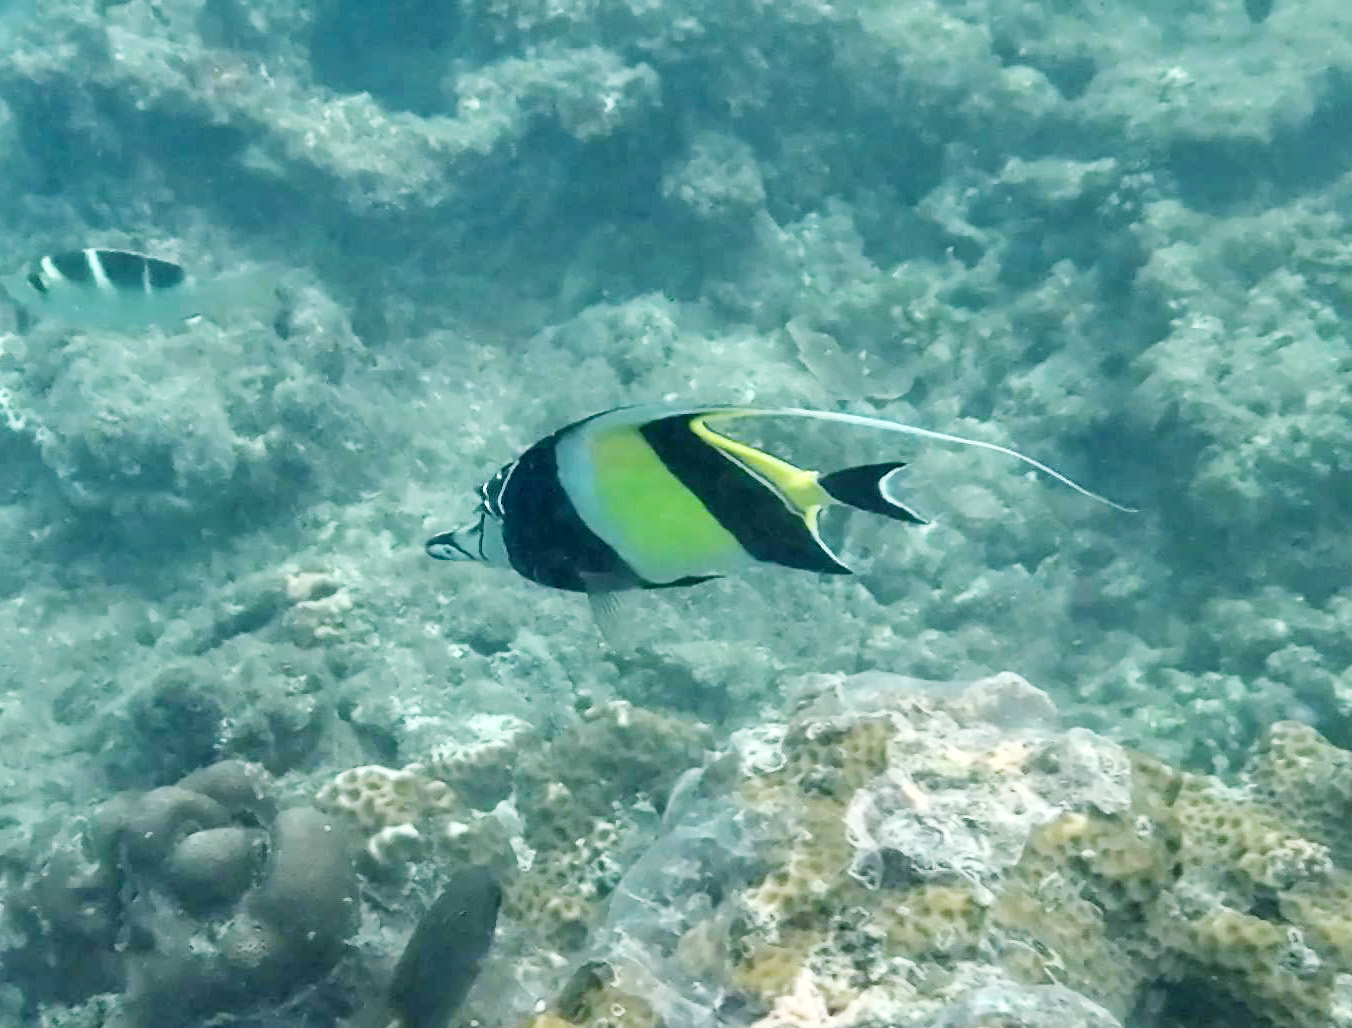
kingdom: Animalia
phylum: Chordata
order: Perciformes
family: Zanclidae
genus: Zanclus
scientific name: Zanclus cornutus
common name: Moorish idol
